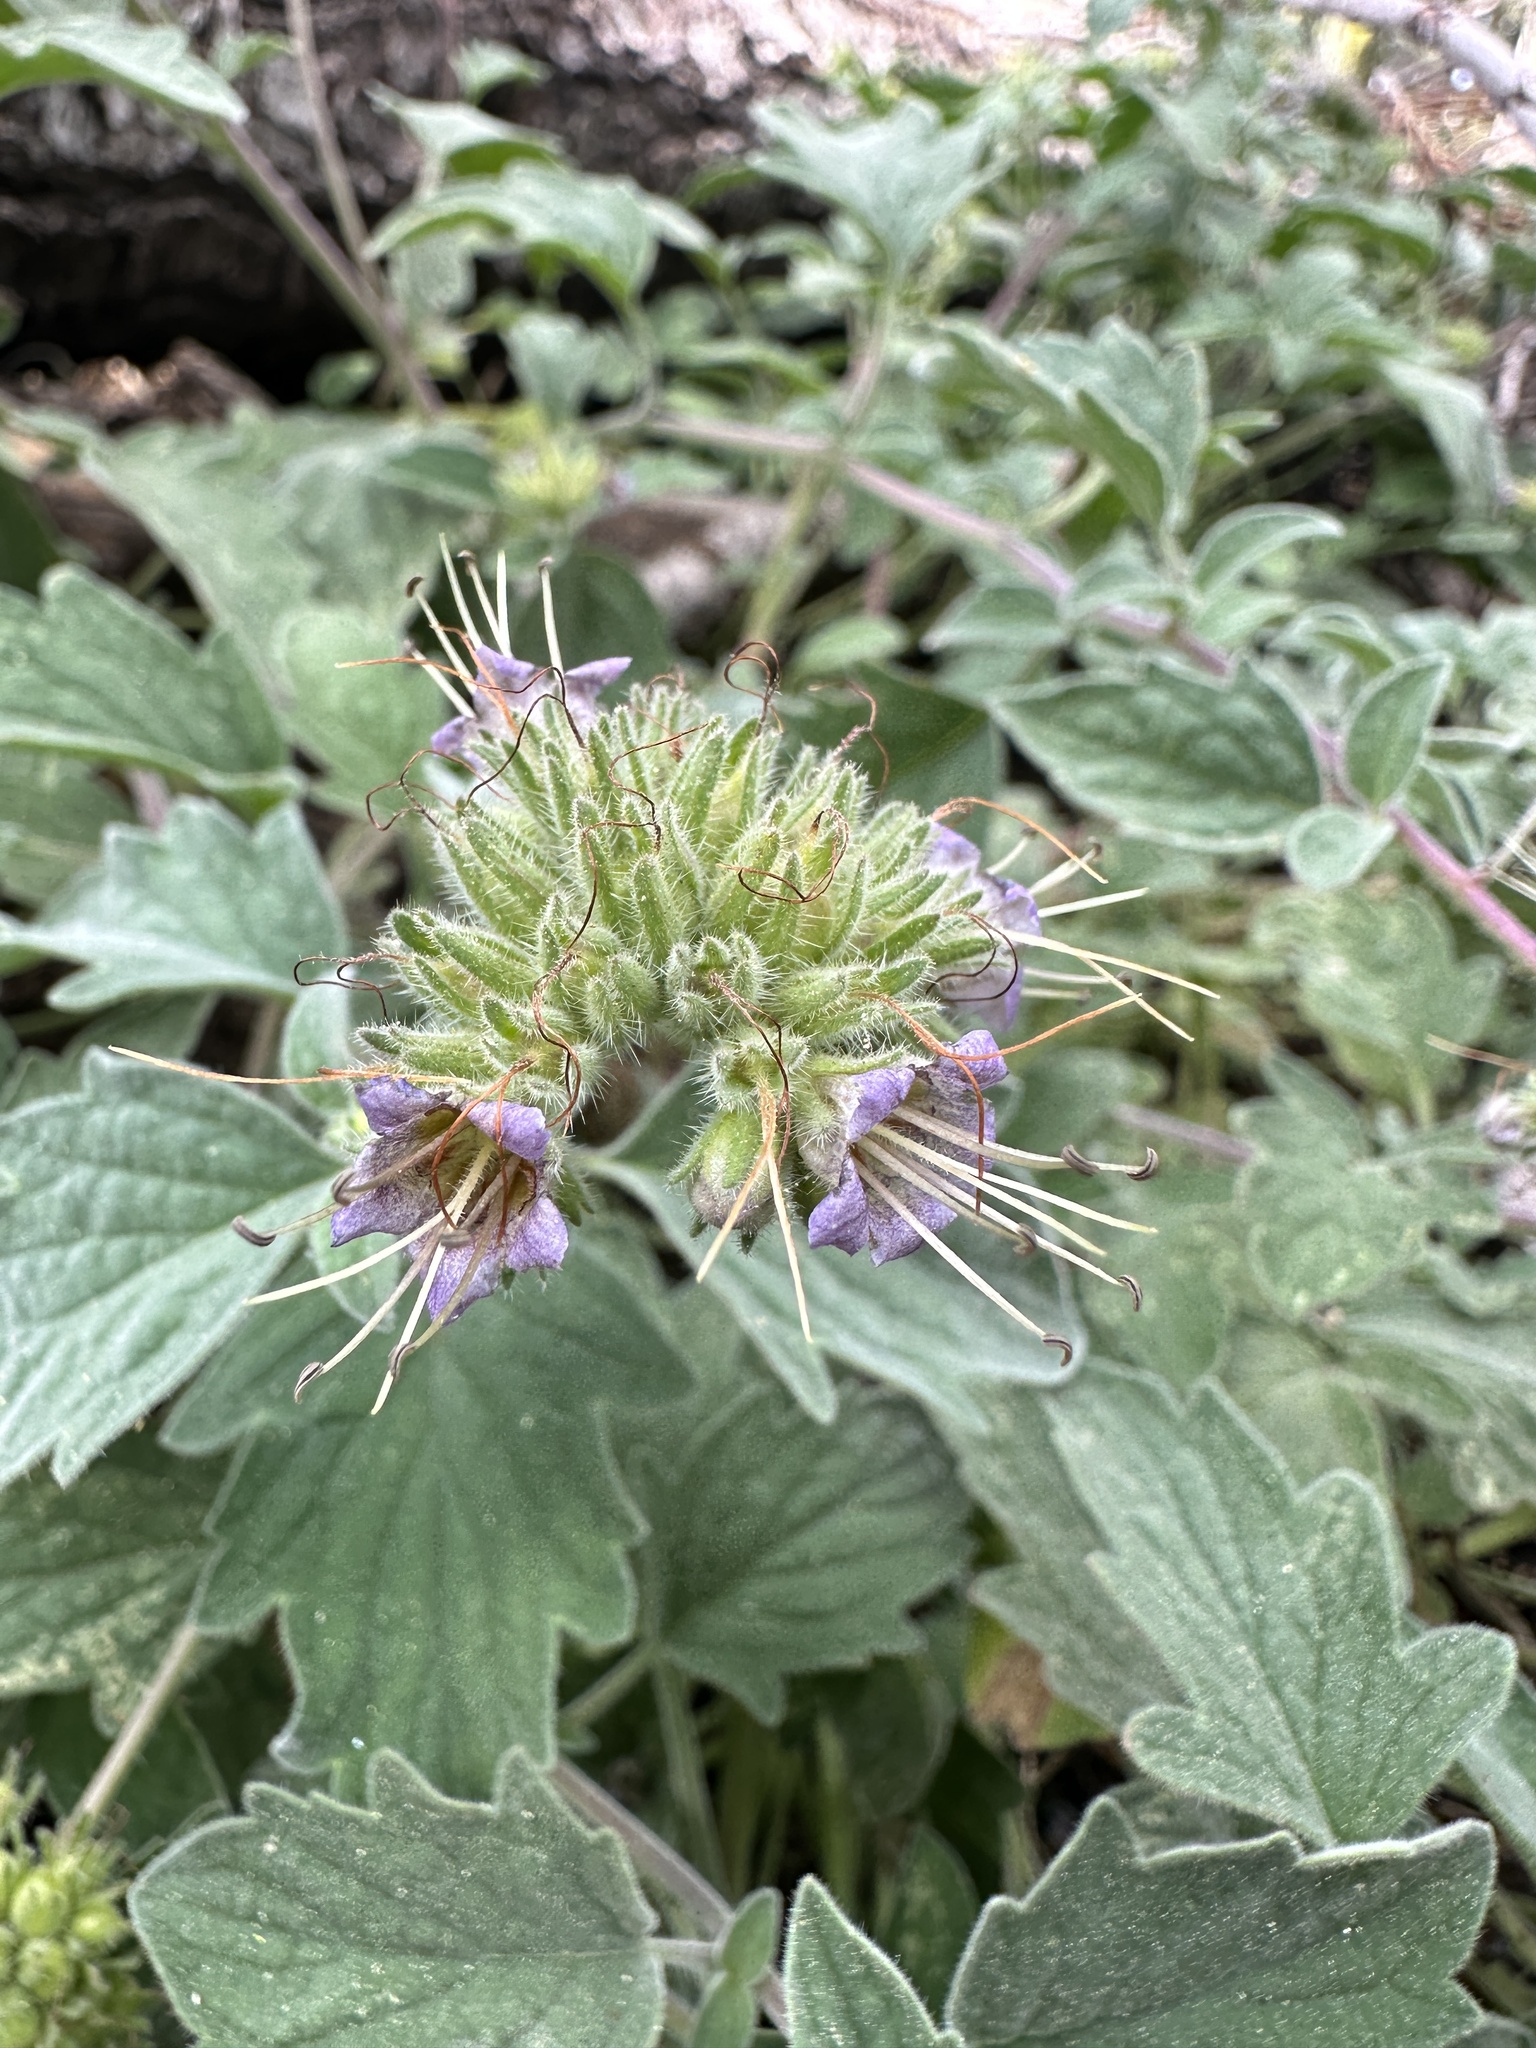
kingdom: Plantae
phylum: Tracheophyta
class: Magnoliopsida
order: Boraginales
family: Hydrophyllaceae
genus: Phacelia
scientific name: Phacelia hydrophylloides
